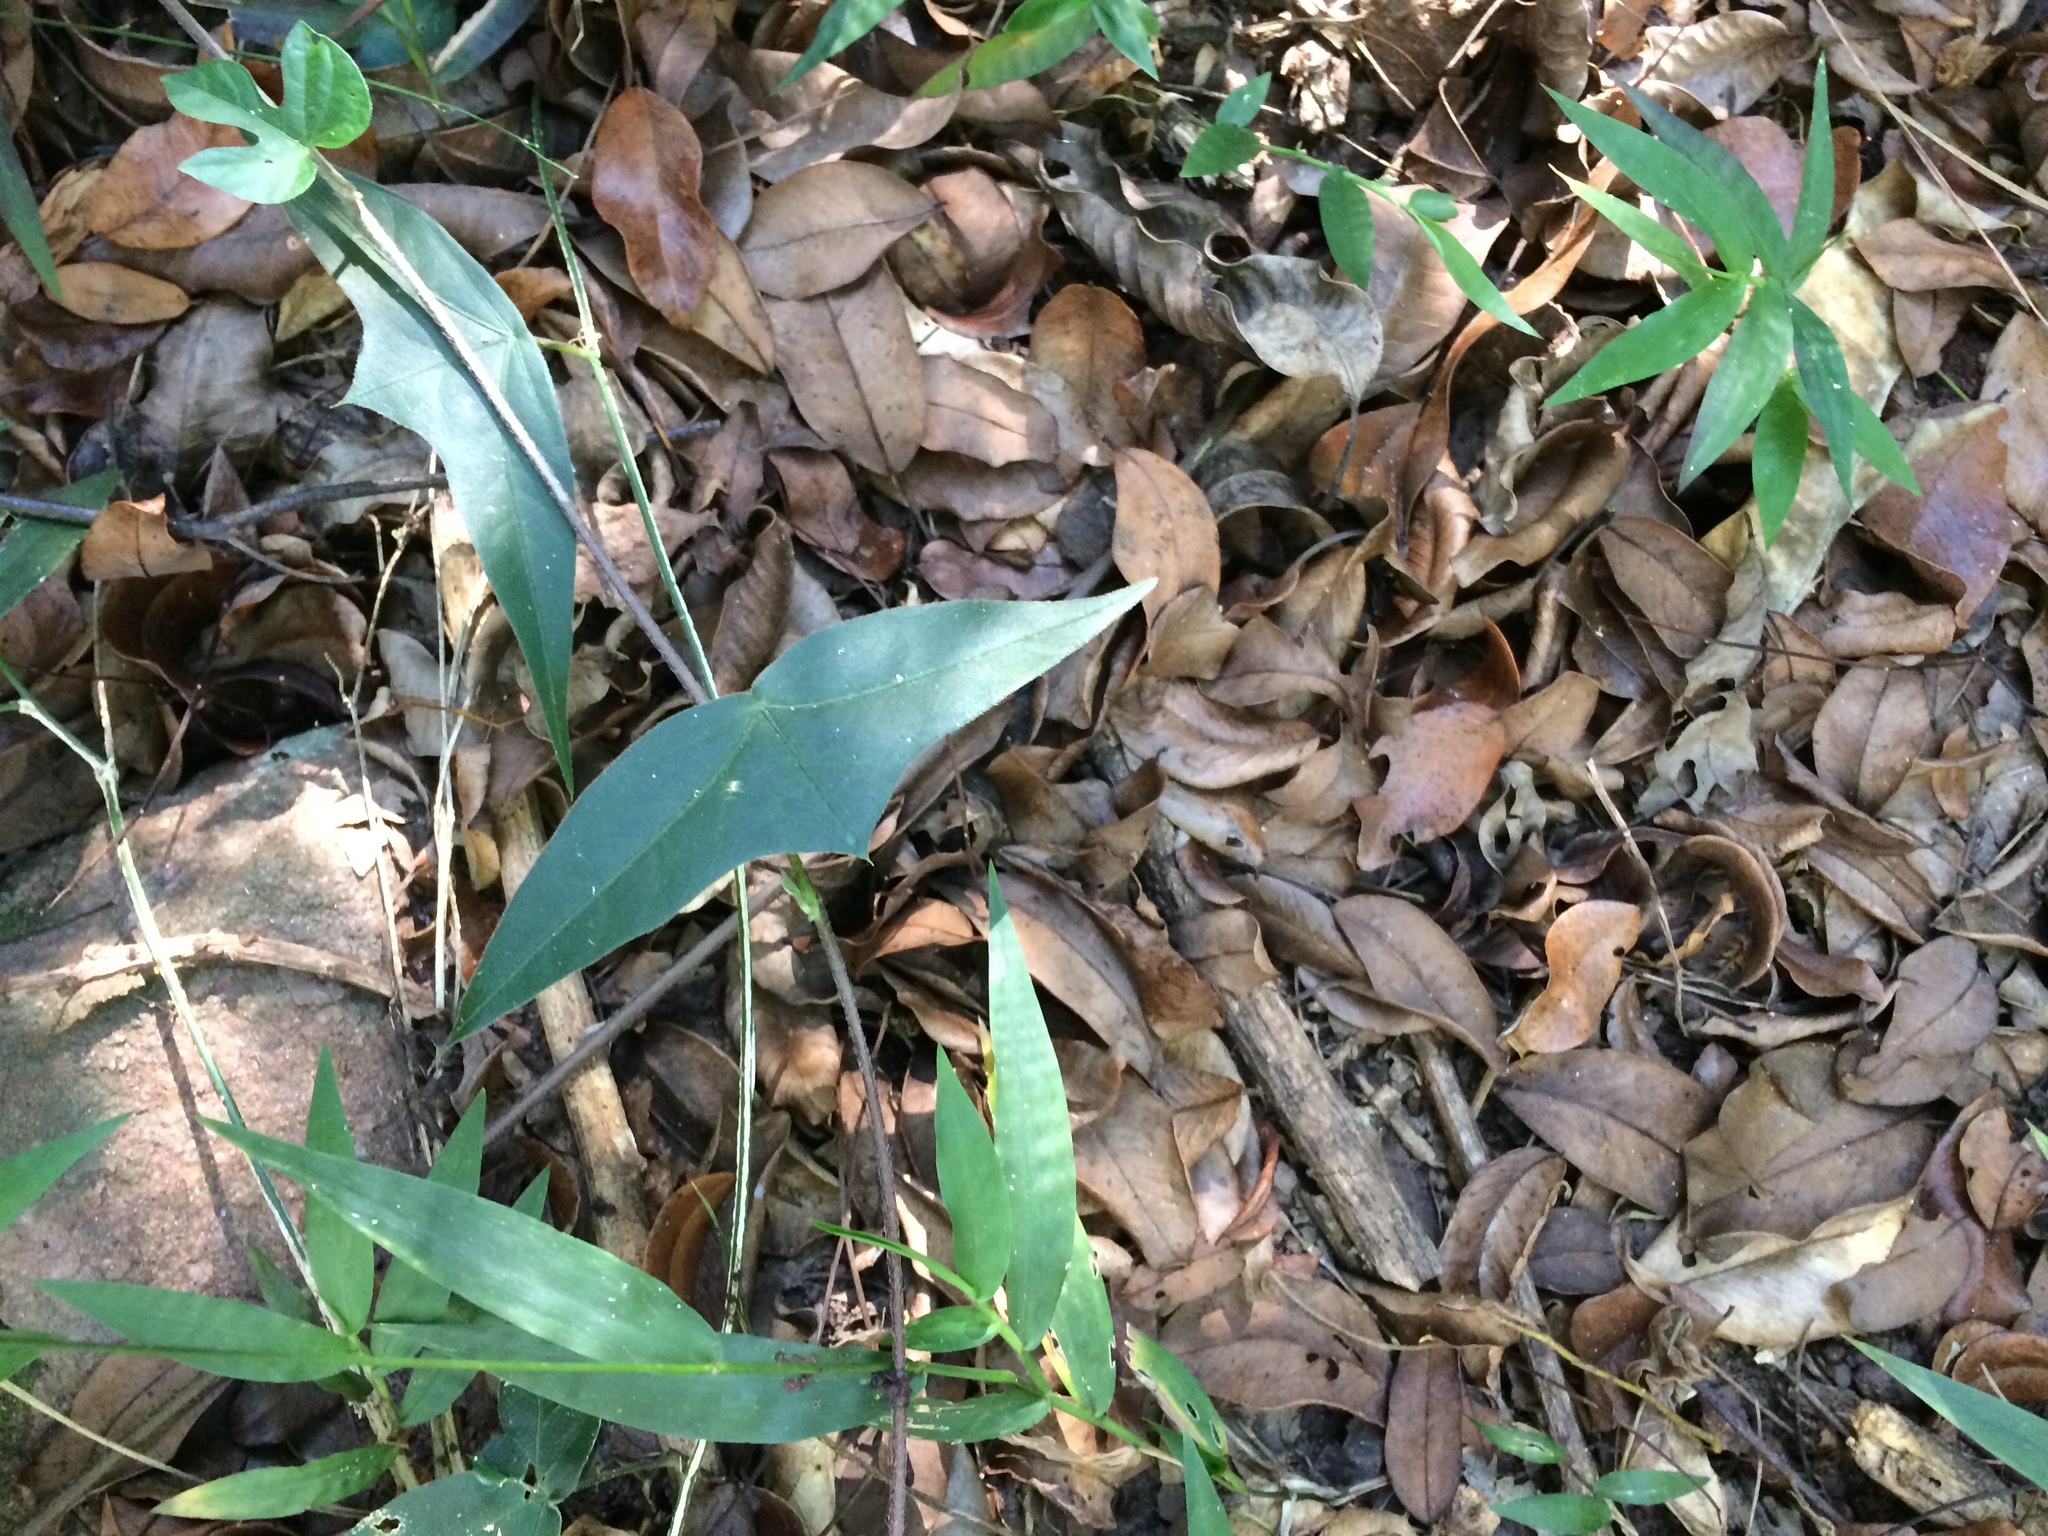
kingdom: Plantae
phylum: Tracheophyta
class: Liliopsida
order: Poales
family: Poaceae
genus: Oplismenus
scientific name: Oplismenus hirtellus
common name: Basketgrass
